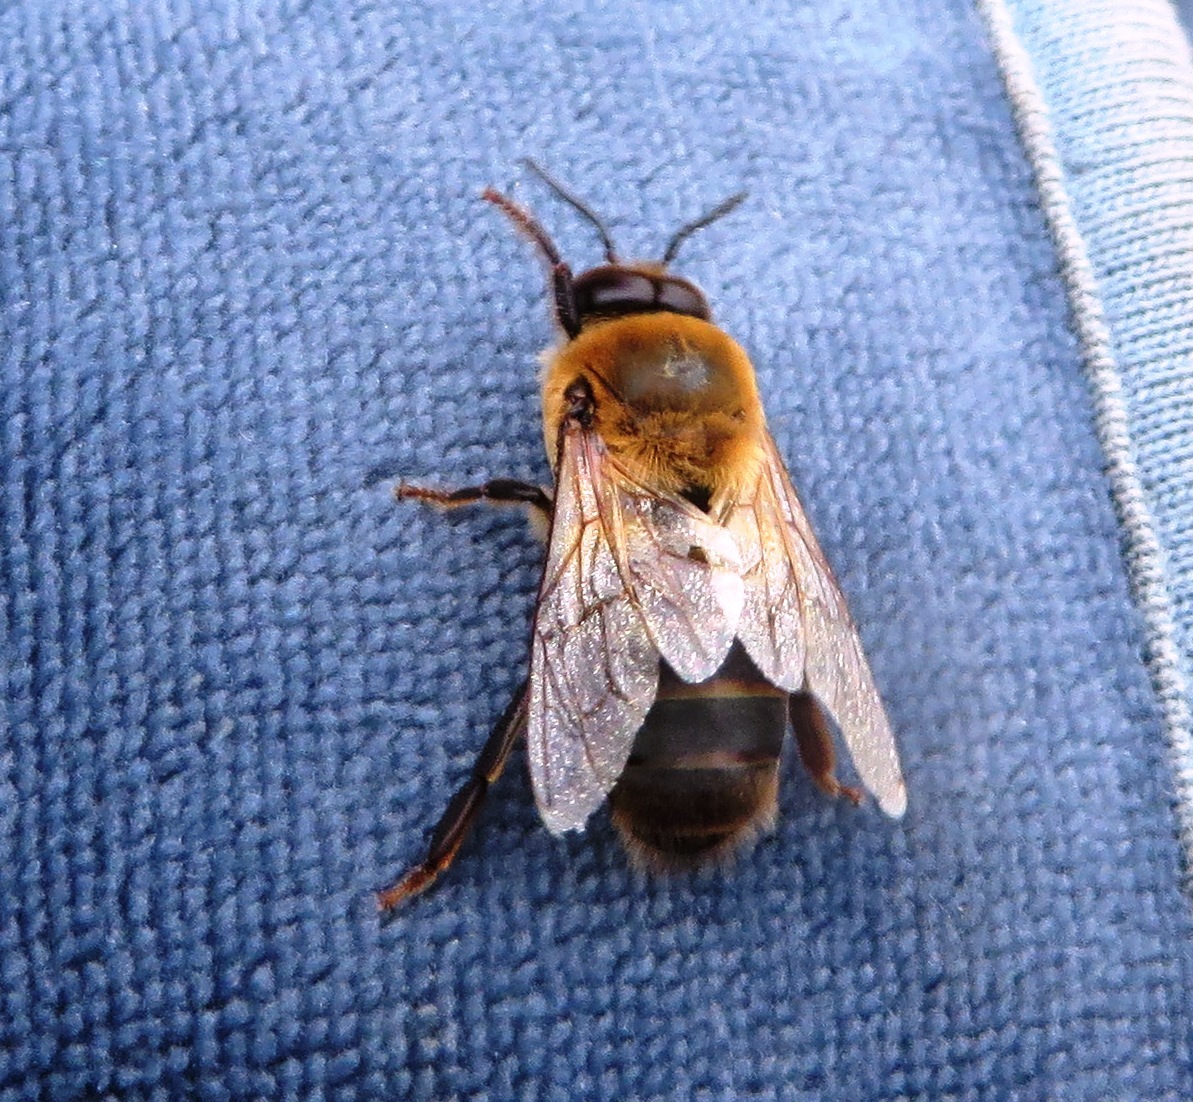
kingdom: Animalia
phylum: Arthropoda
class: Insecta
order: Hymenoptera
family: Apidae
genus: Apis
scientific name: Apis mellifera
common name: Honey bee
